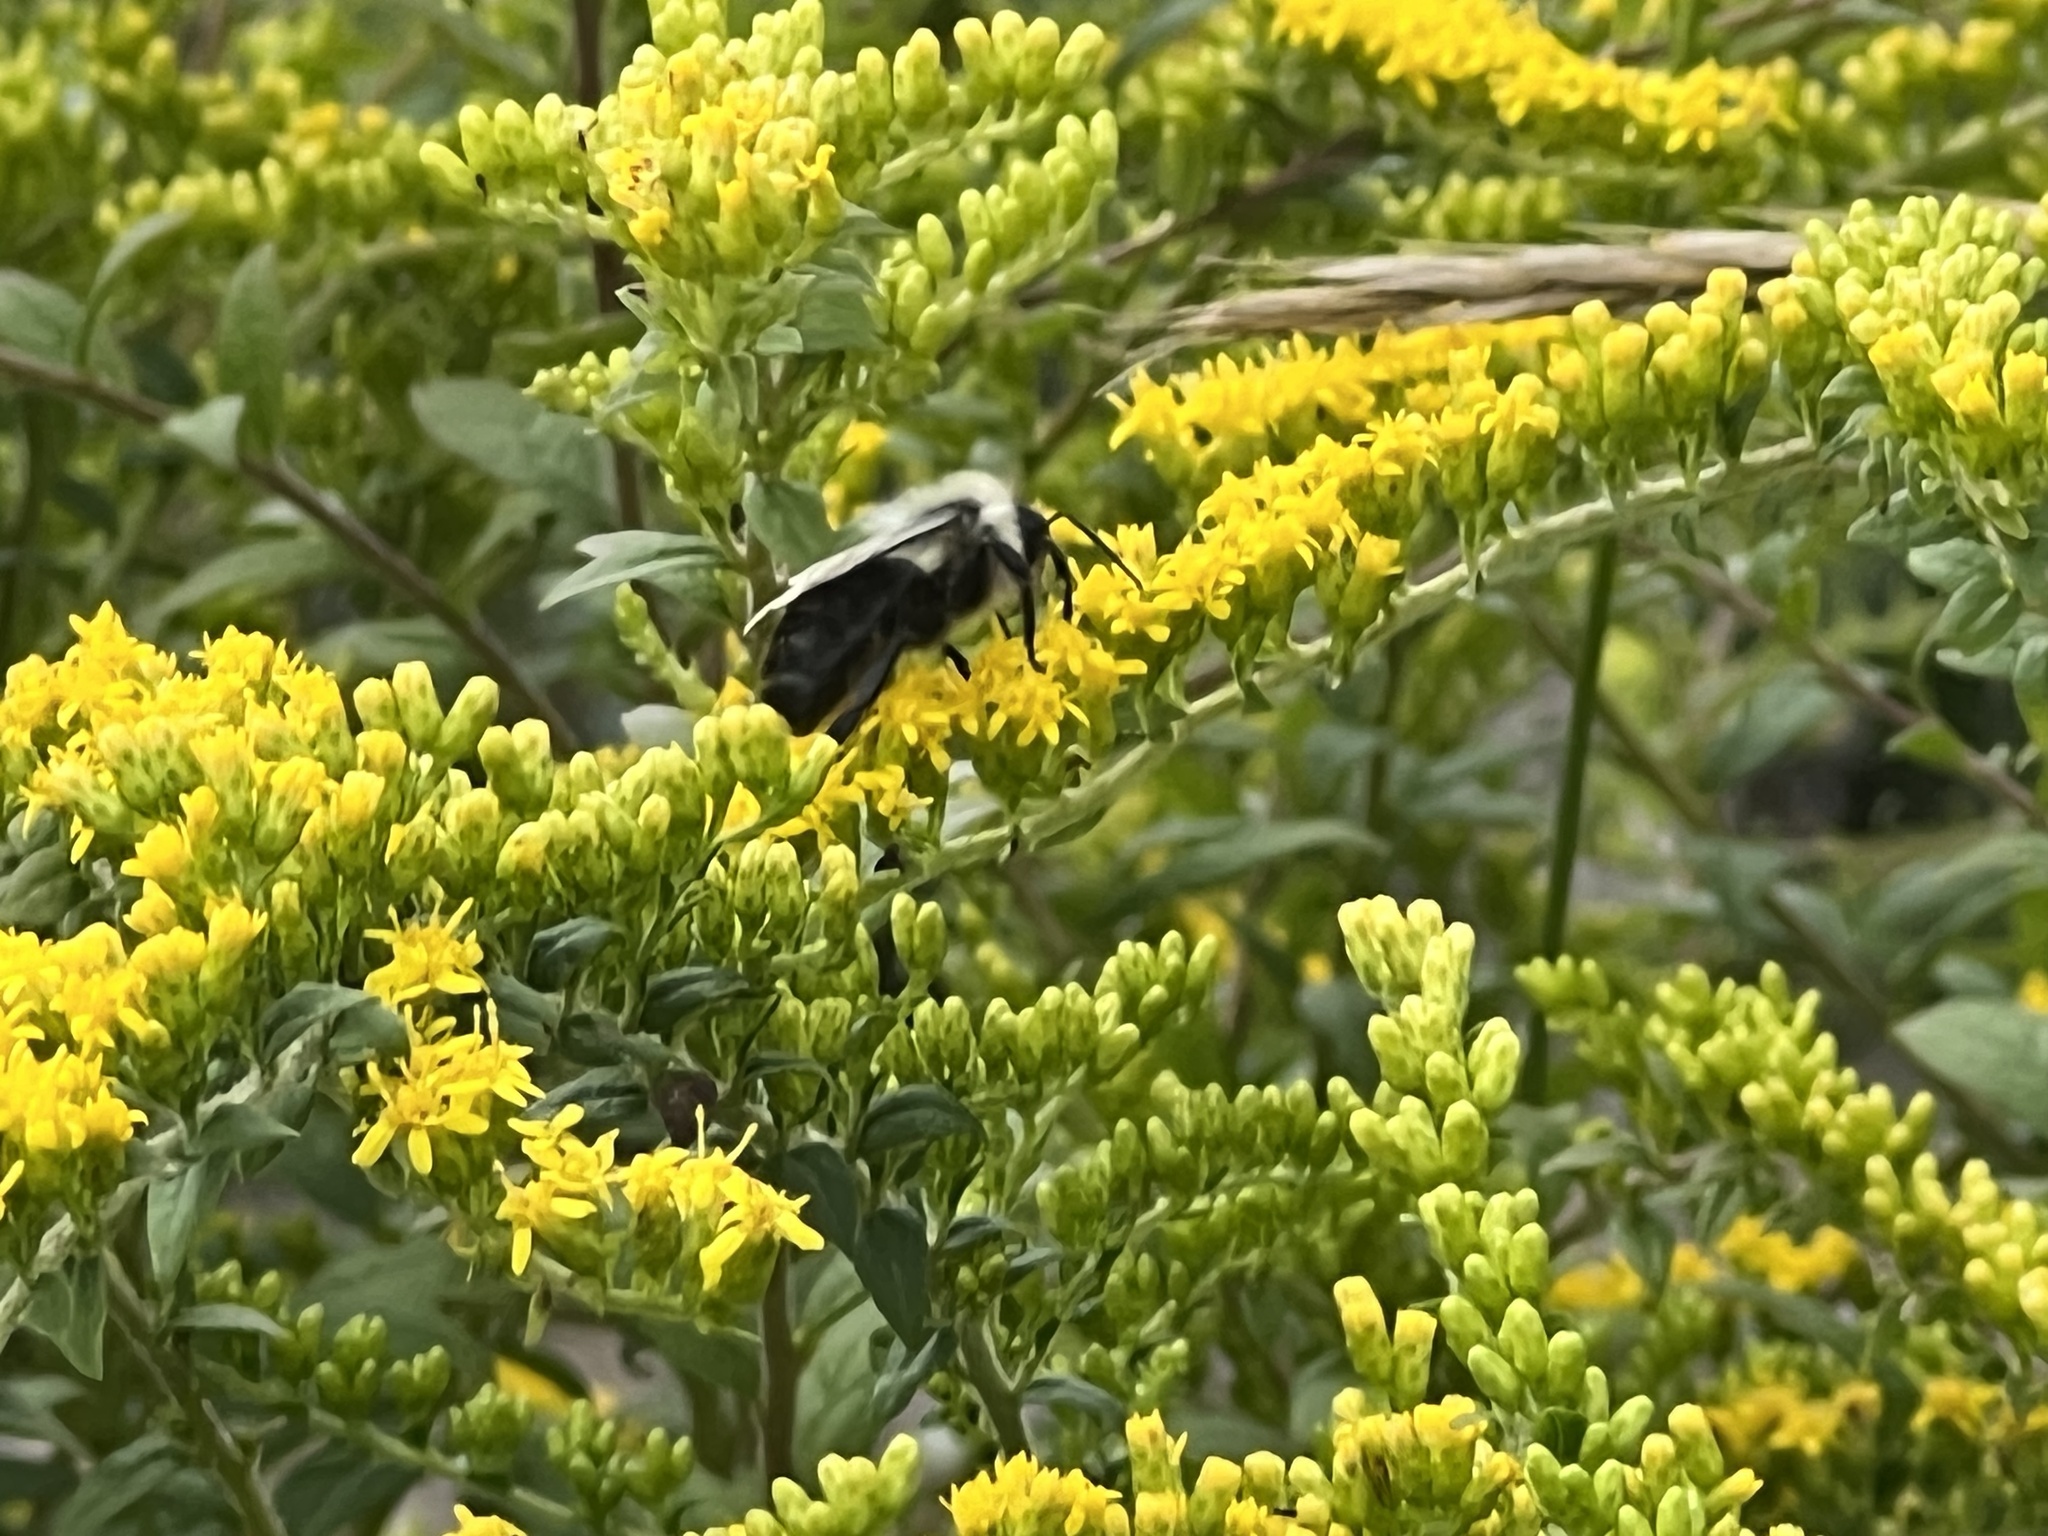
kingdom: Animalia
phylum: Arthropoda
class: Insecta
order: Hymenoptera
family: Apidae
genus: Bombus
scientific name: Bombus impatiens
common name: Common eastern bumble bee
